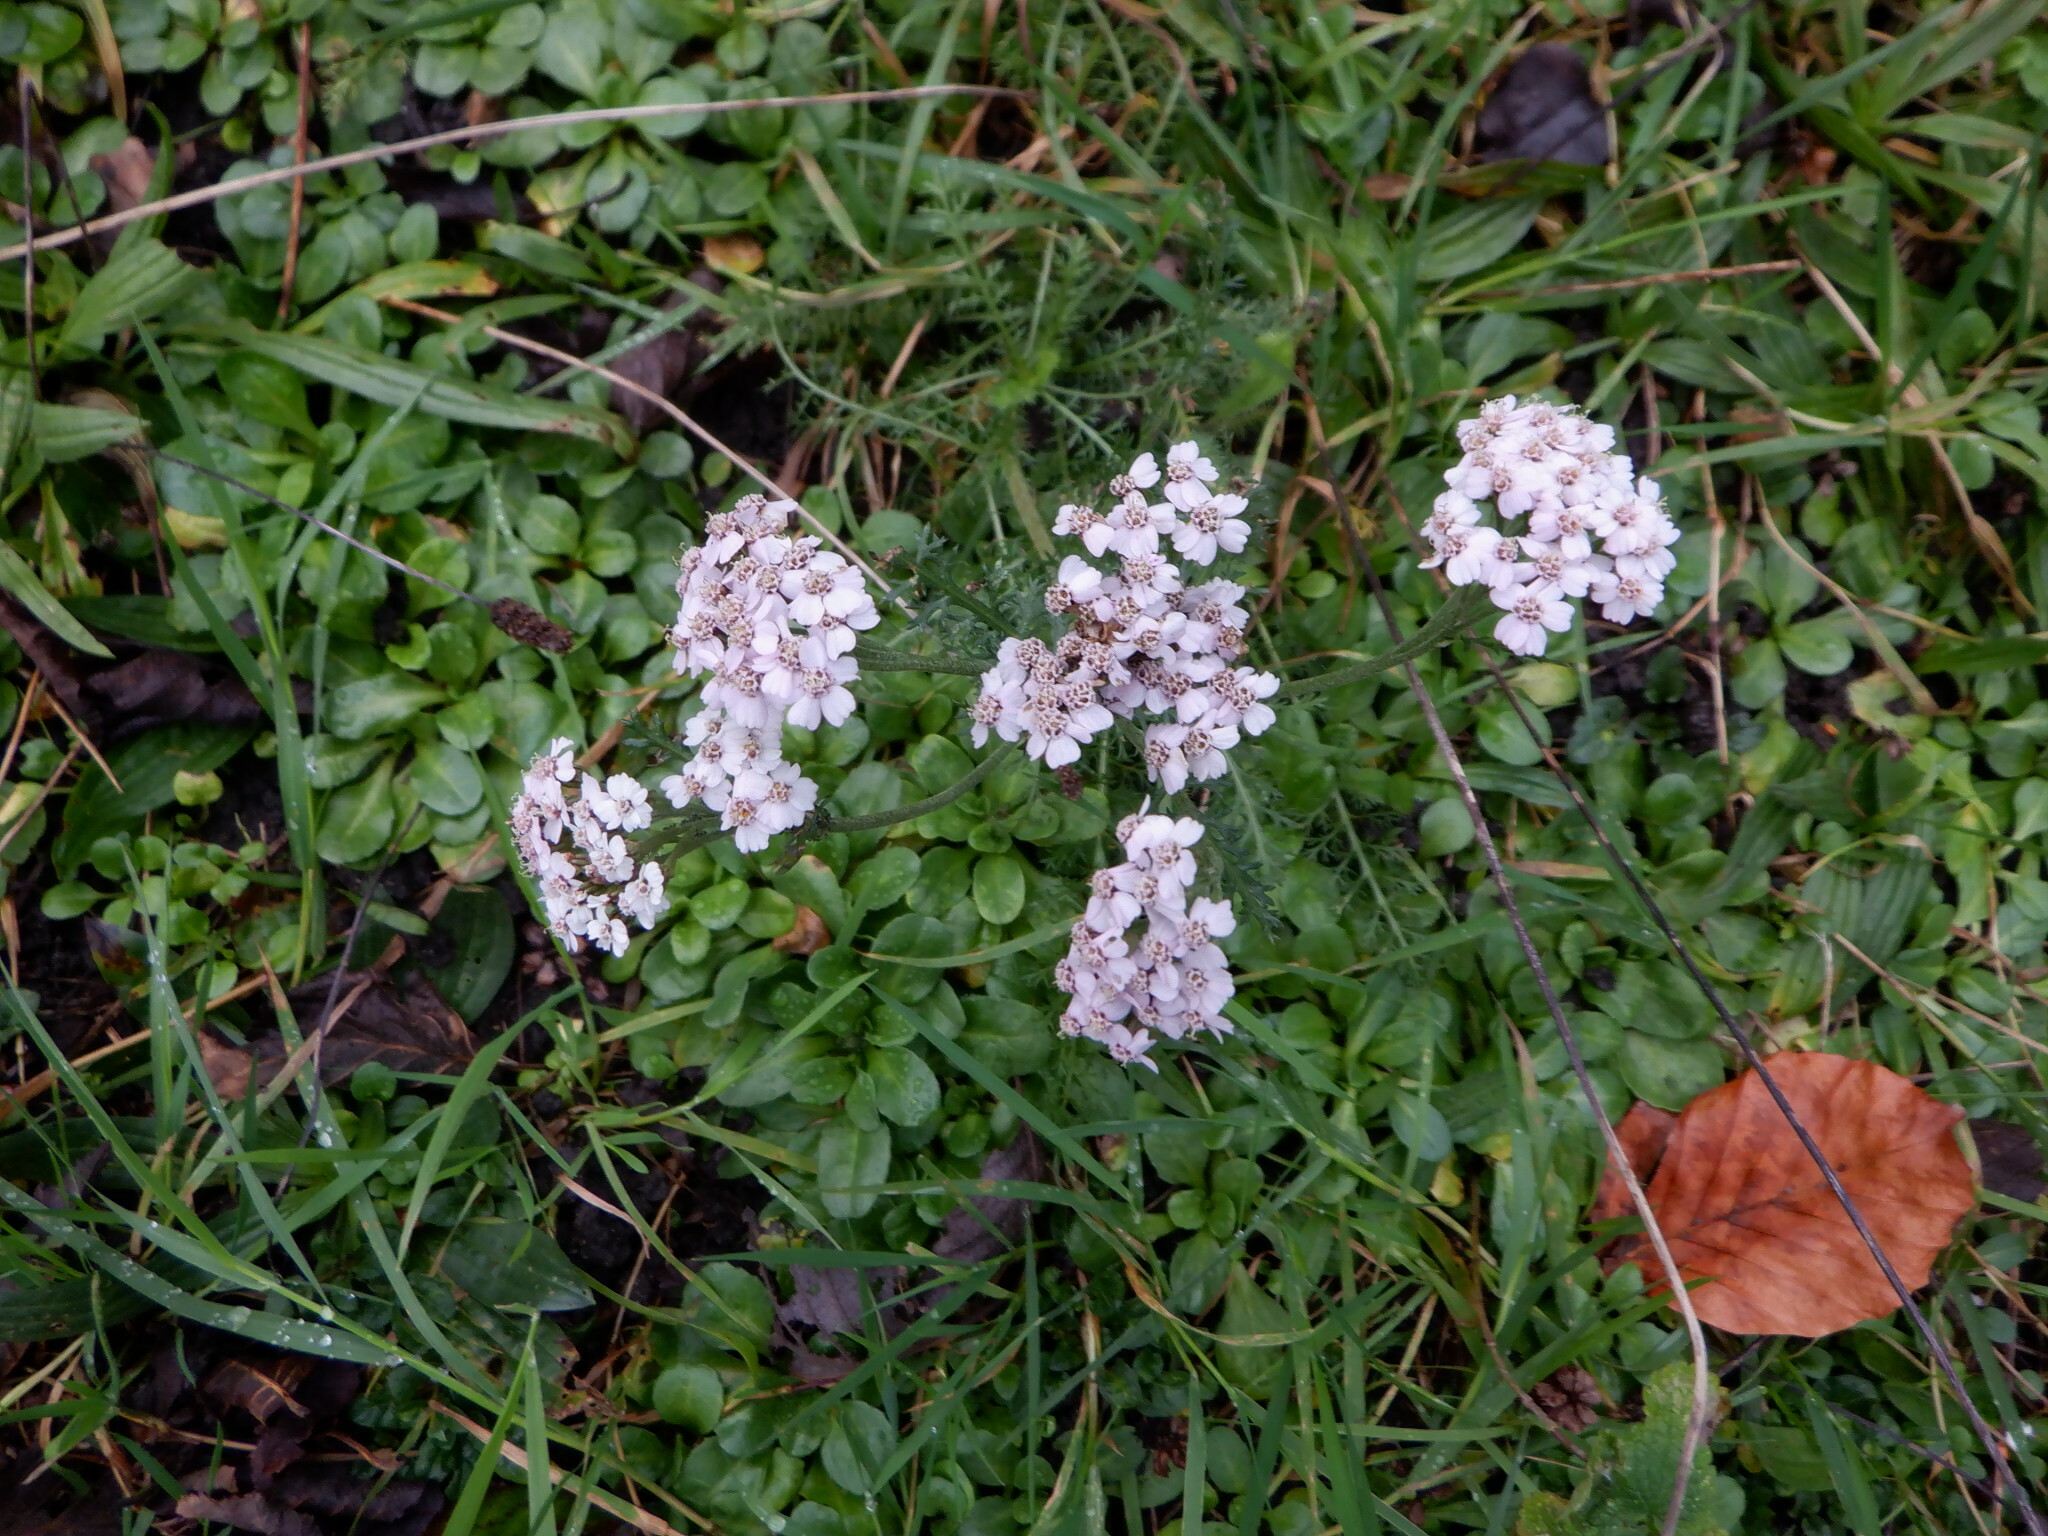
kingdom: Plantae
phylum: Tracheophyta
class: Magnoliopsida
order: Asterales
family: Asteraceae
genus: Achillea
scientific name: Achillea millefolium
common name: Yarrow
